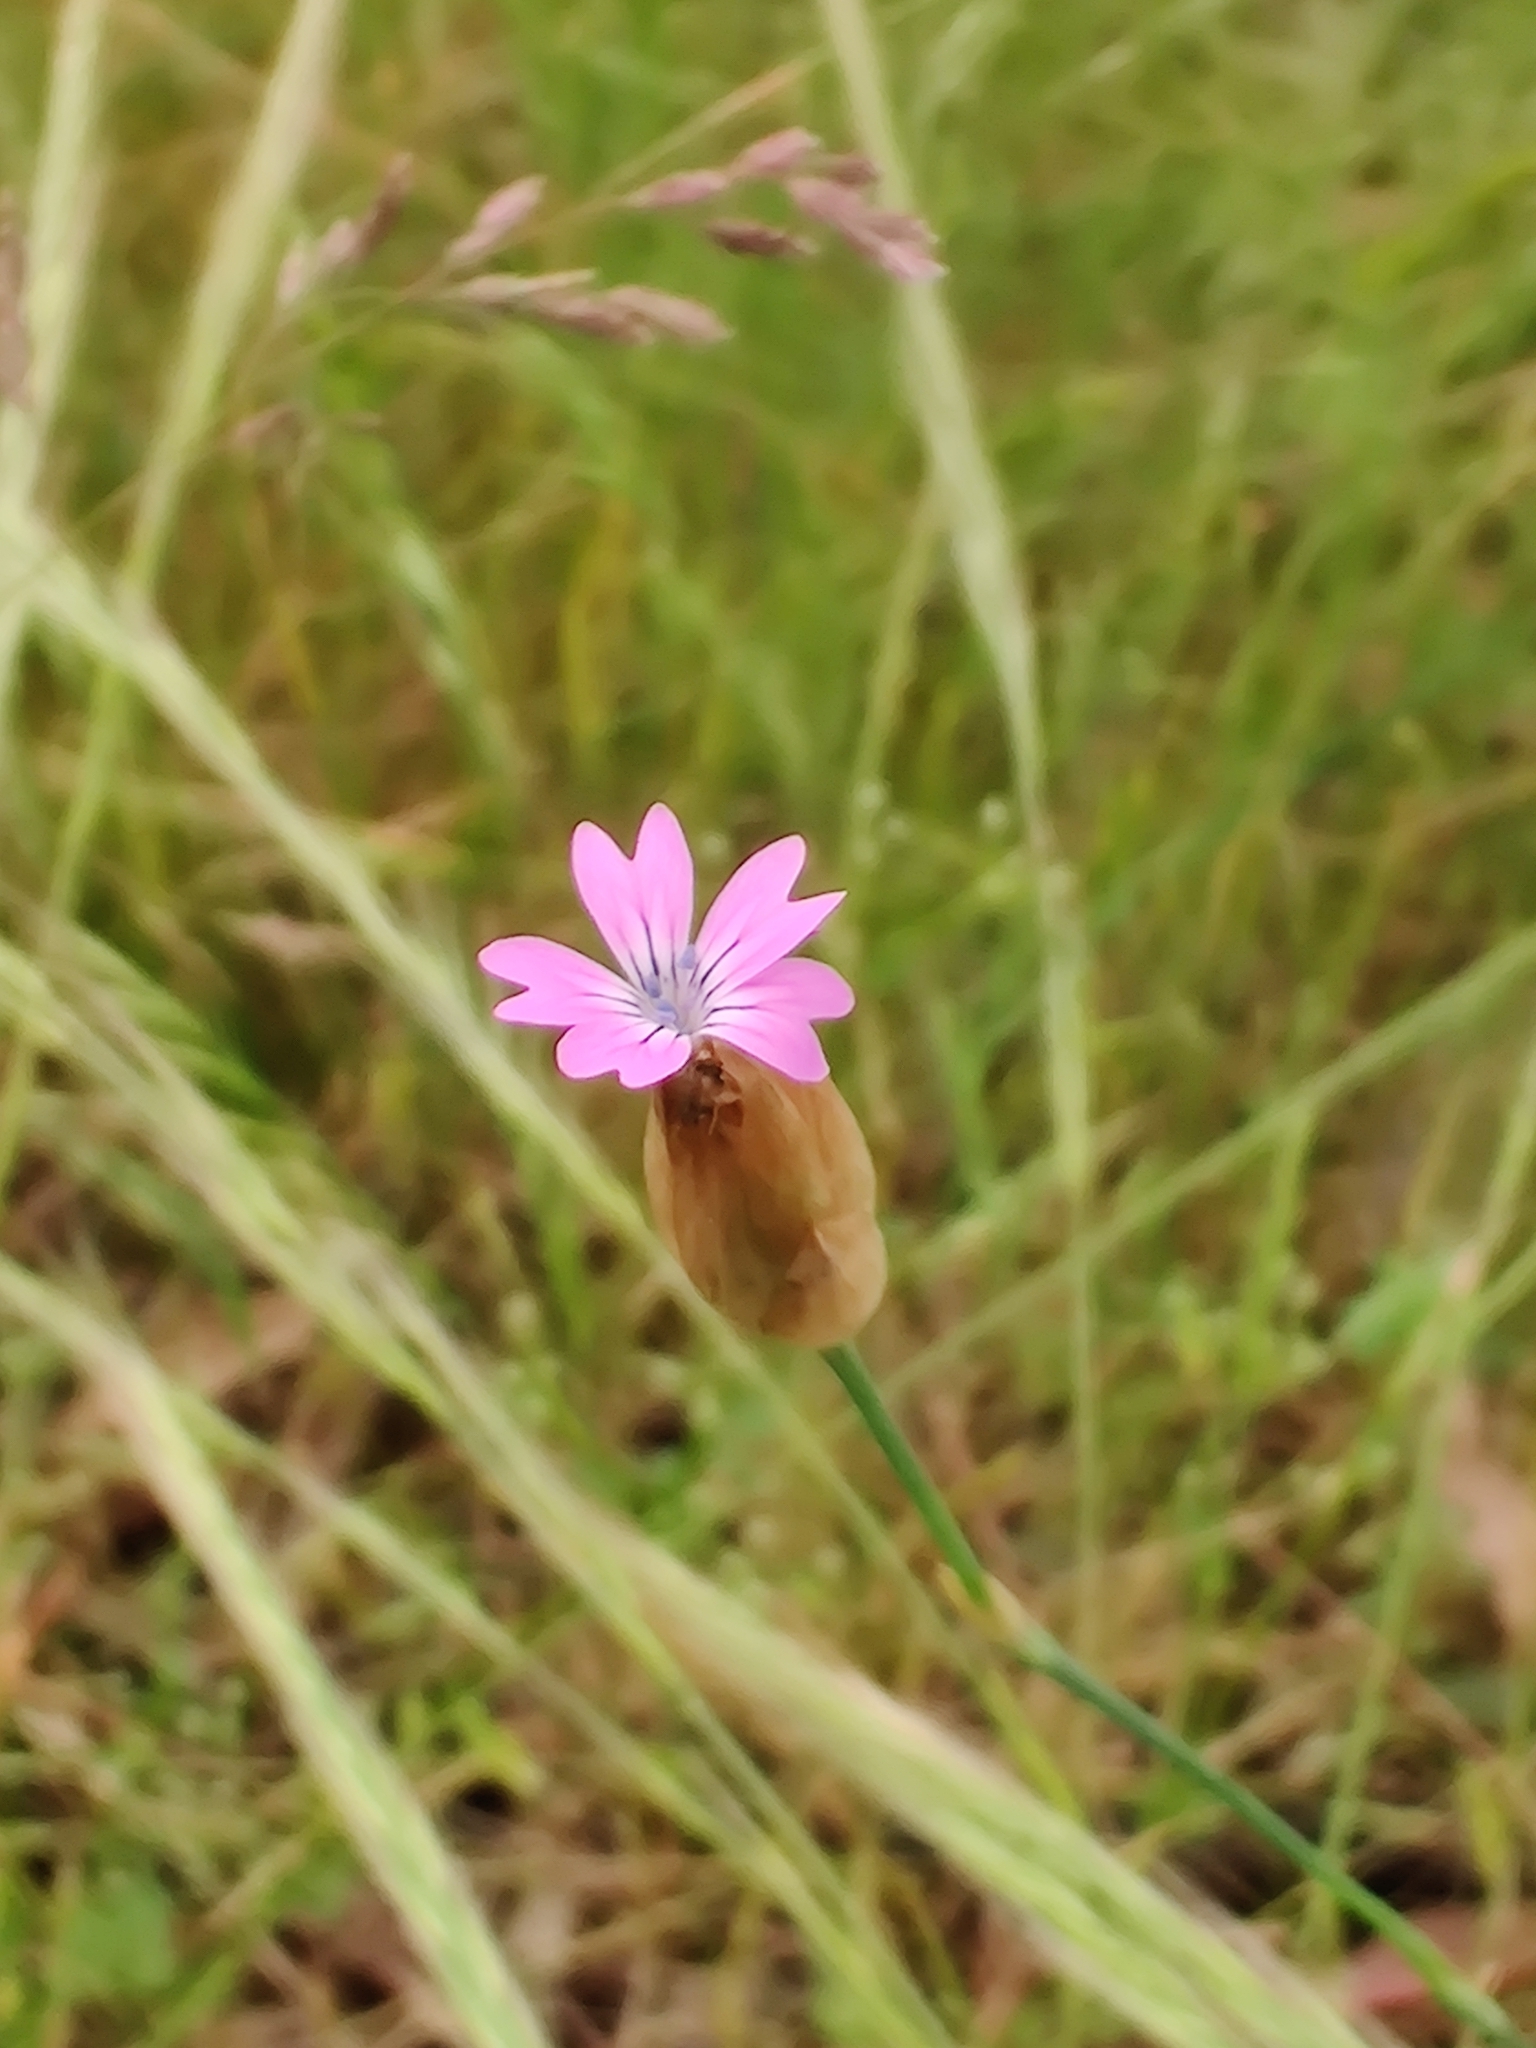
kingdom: Plantae
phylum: Tracheophyta
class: Magnoliopsida
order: Caryophyllales
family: Caryophyllaceae
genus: Petrorhagia
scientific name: Petrorhagia dubia
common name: Hairypink
